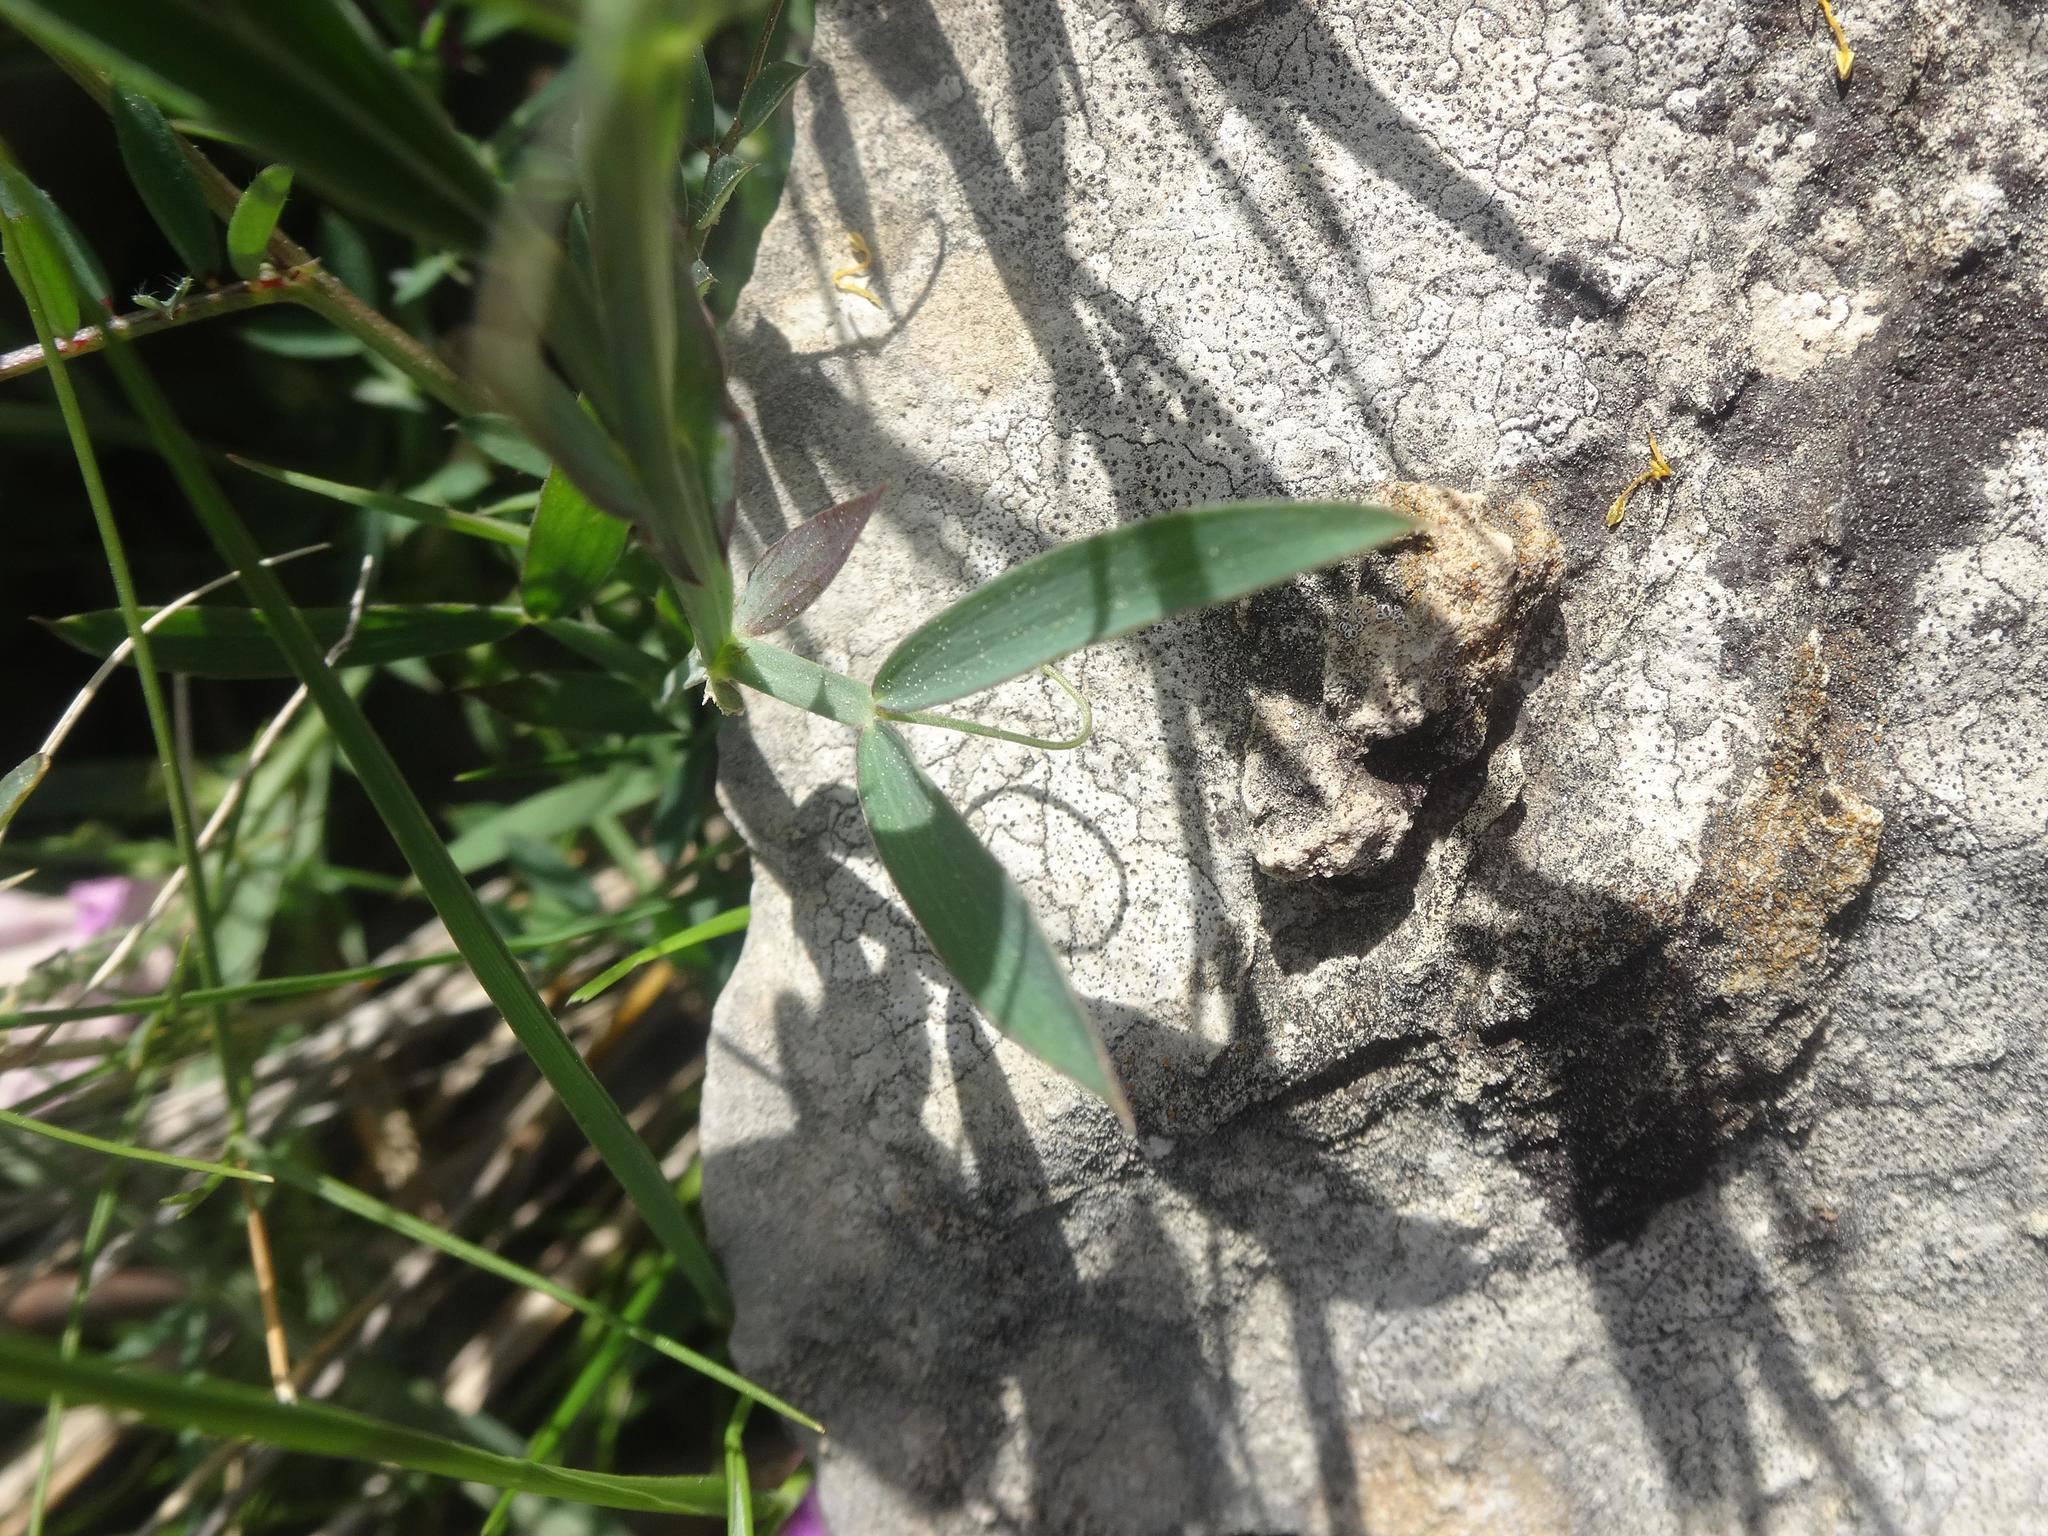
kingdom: Plantae
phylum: Tracheophyta
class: Magnoliopsida
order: Fabales
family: Fabaceae
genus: Lathyrus
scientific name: Lathyrus cicera
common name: Red vetchling
